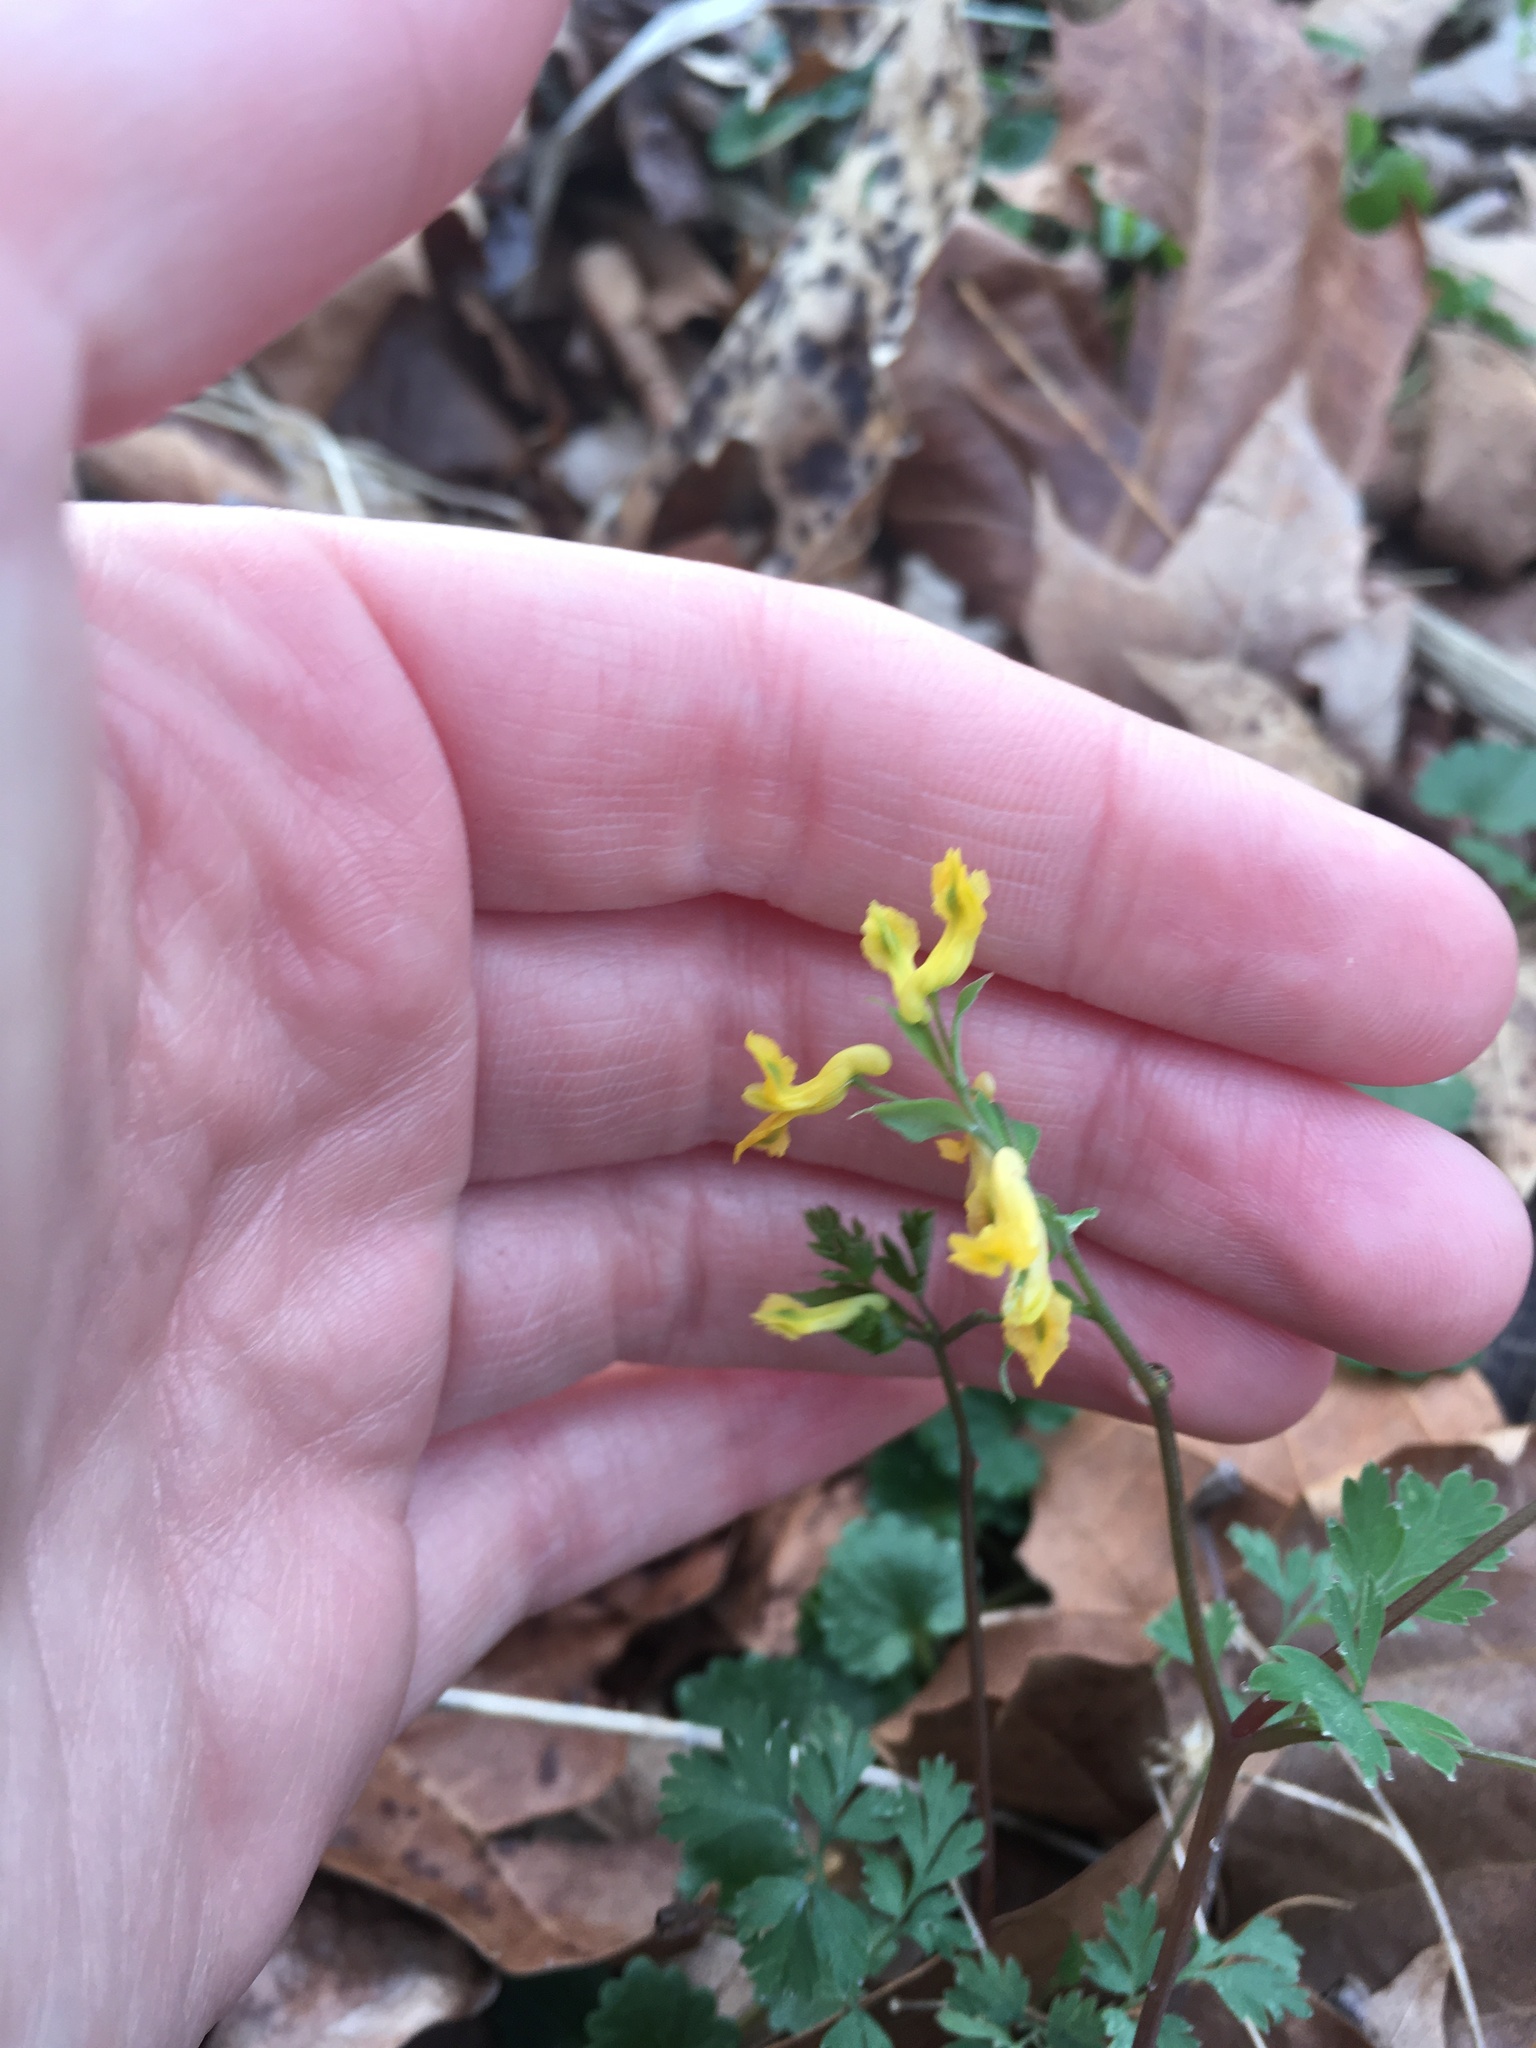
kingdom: Plantae
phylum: Tracheophyta
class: Magnoliopsida
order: Ranunculales
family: Papaveraceae
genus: Corydalis
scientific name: Corydalis flavula
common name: Yellow corydalis
